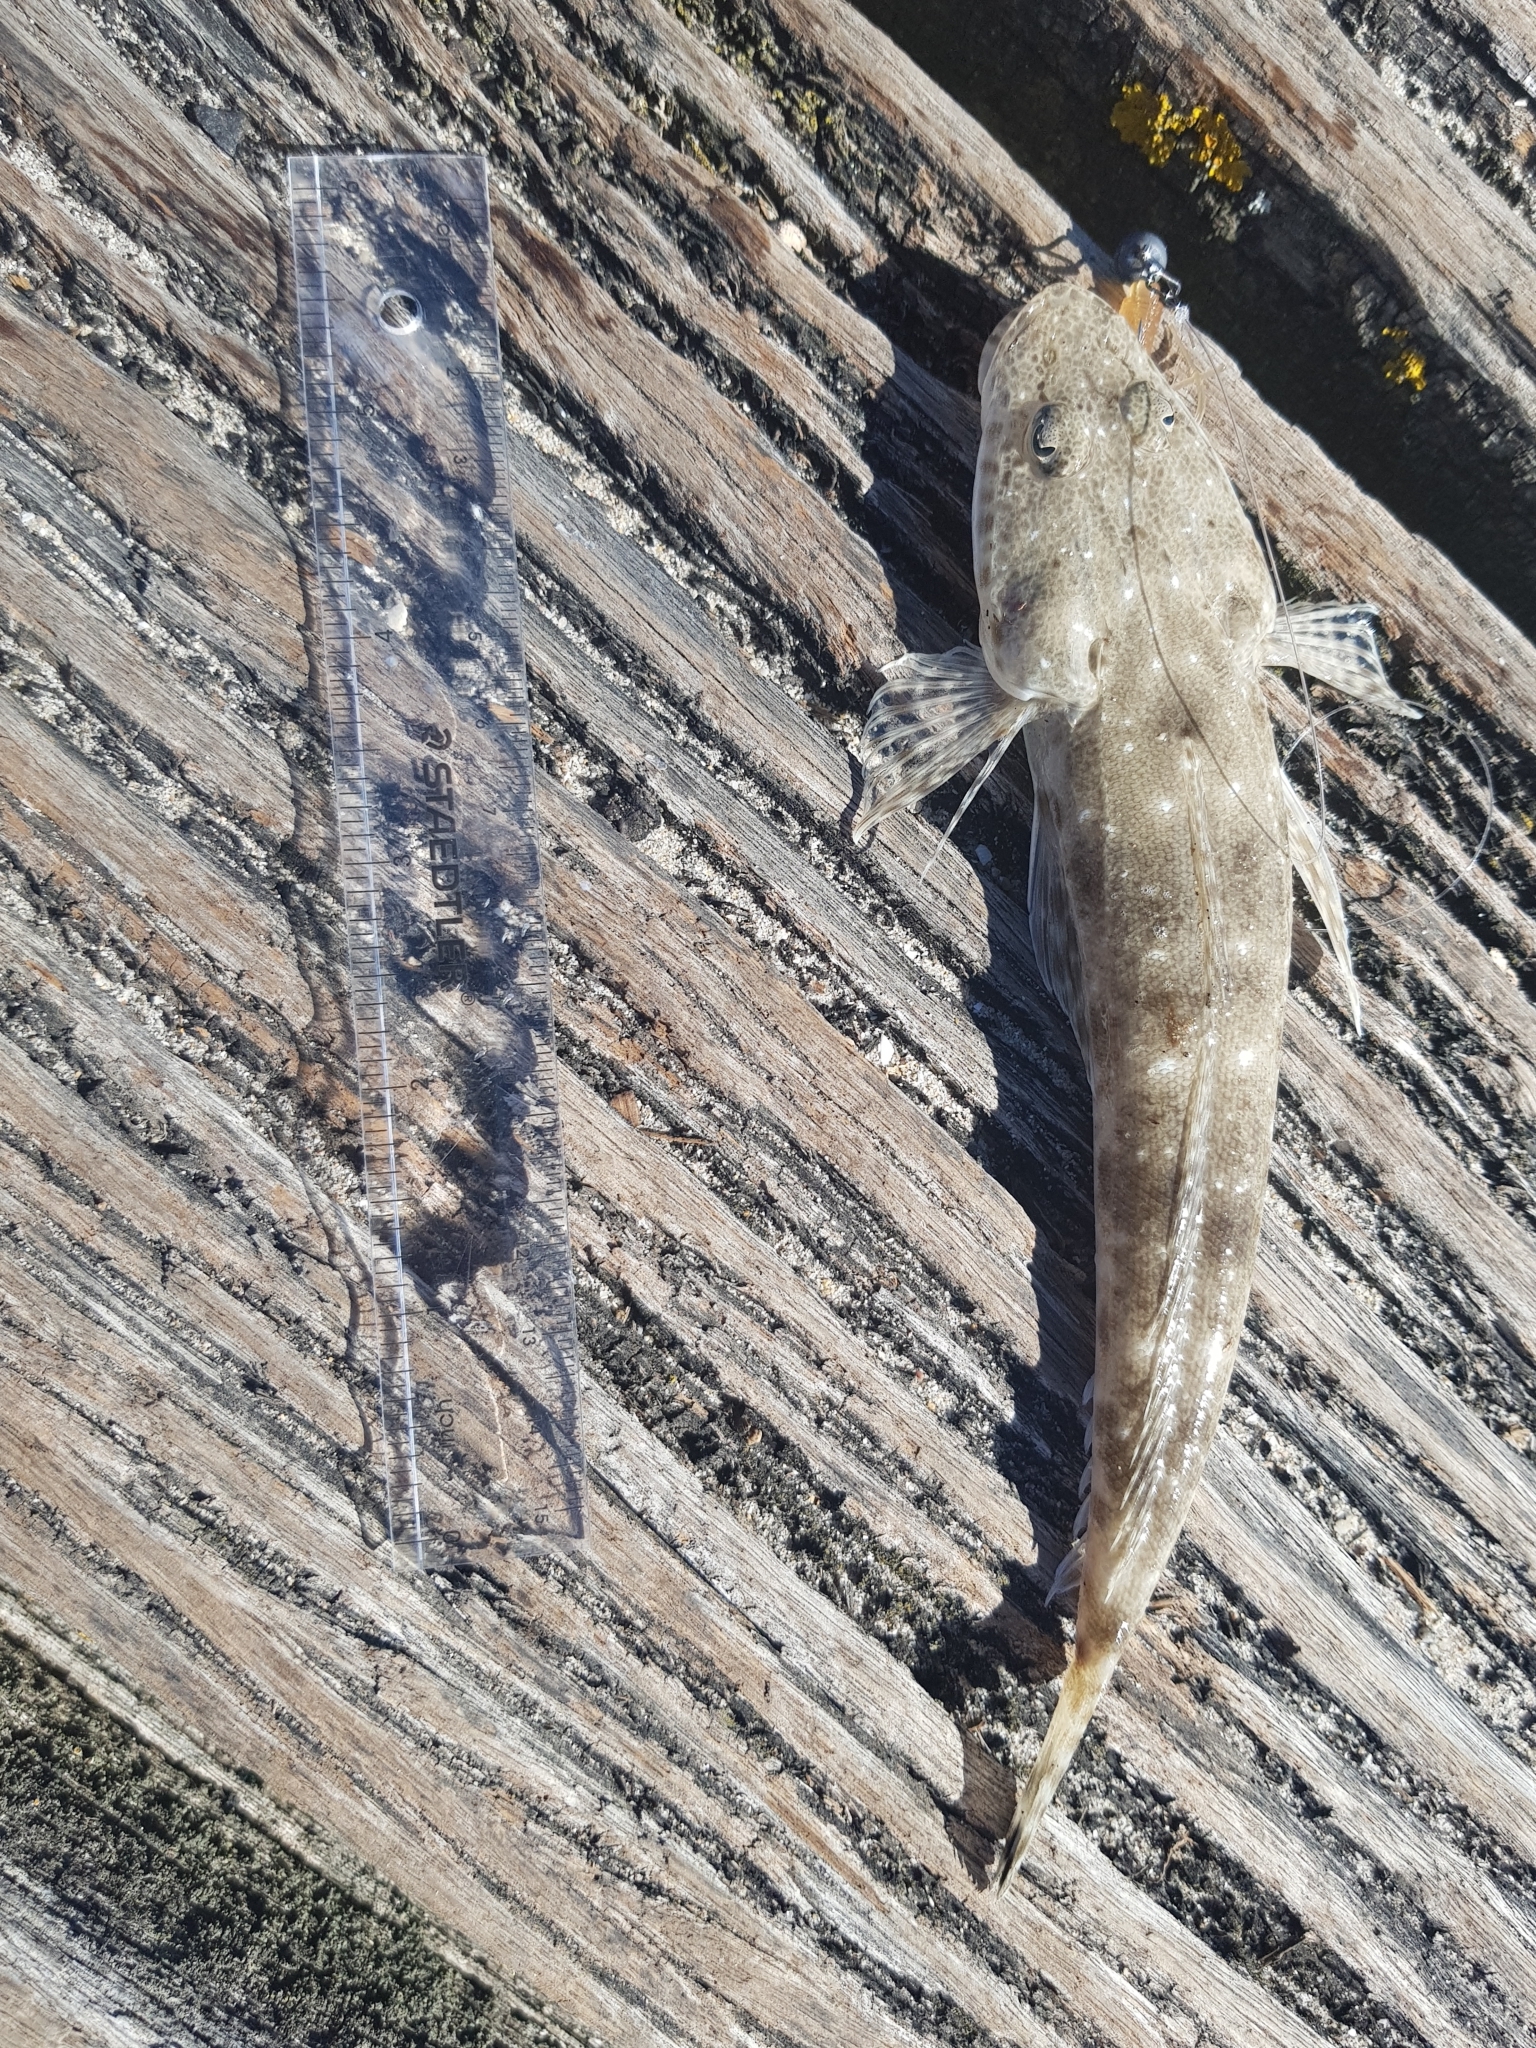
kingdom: Animalia
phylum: Chordata
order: Scorpaeniformes
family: Platycephalidae
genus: Platycephalus
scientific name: Platycephalus bassensis
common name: Sand flathead
